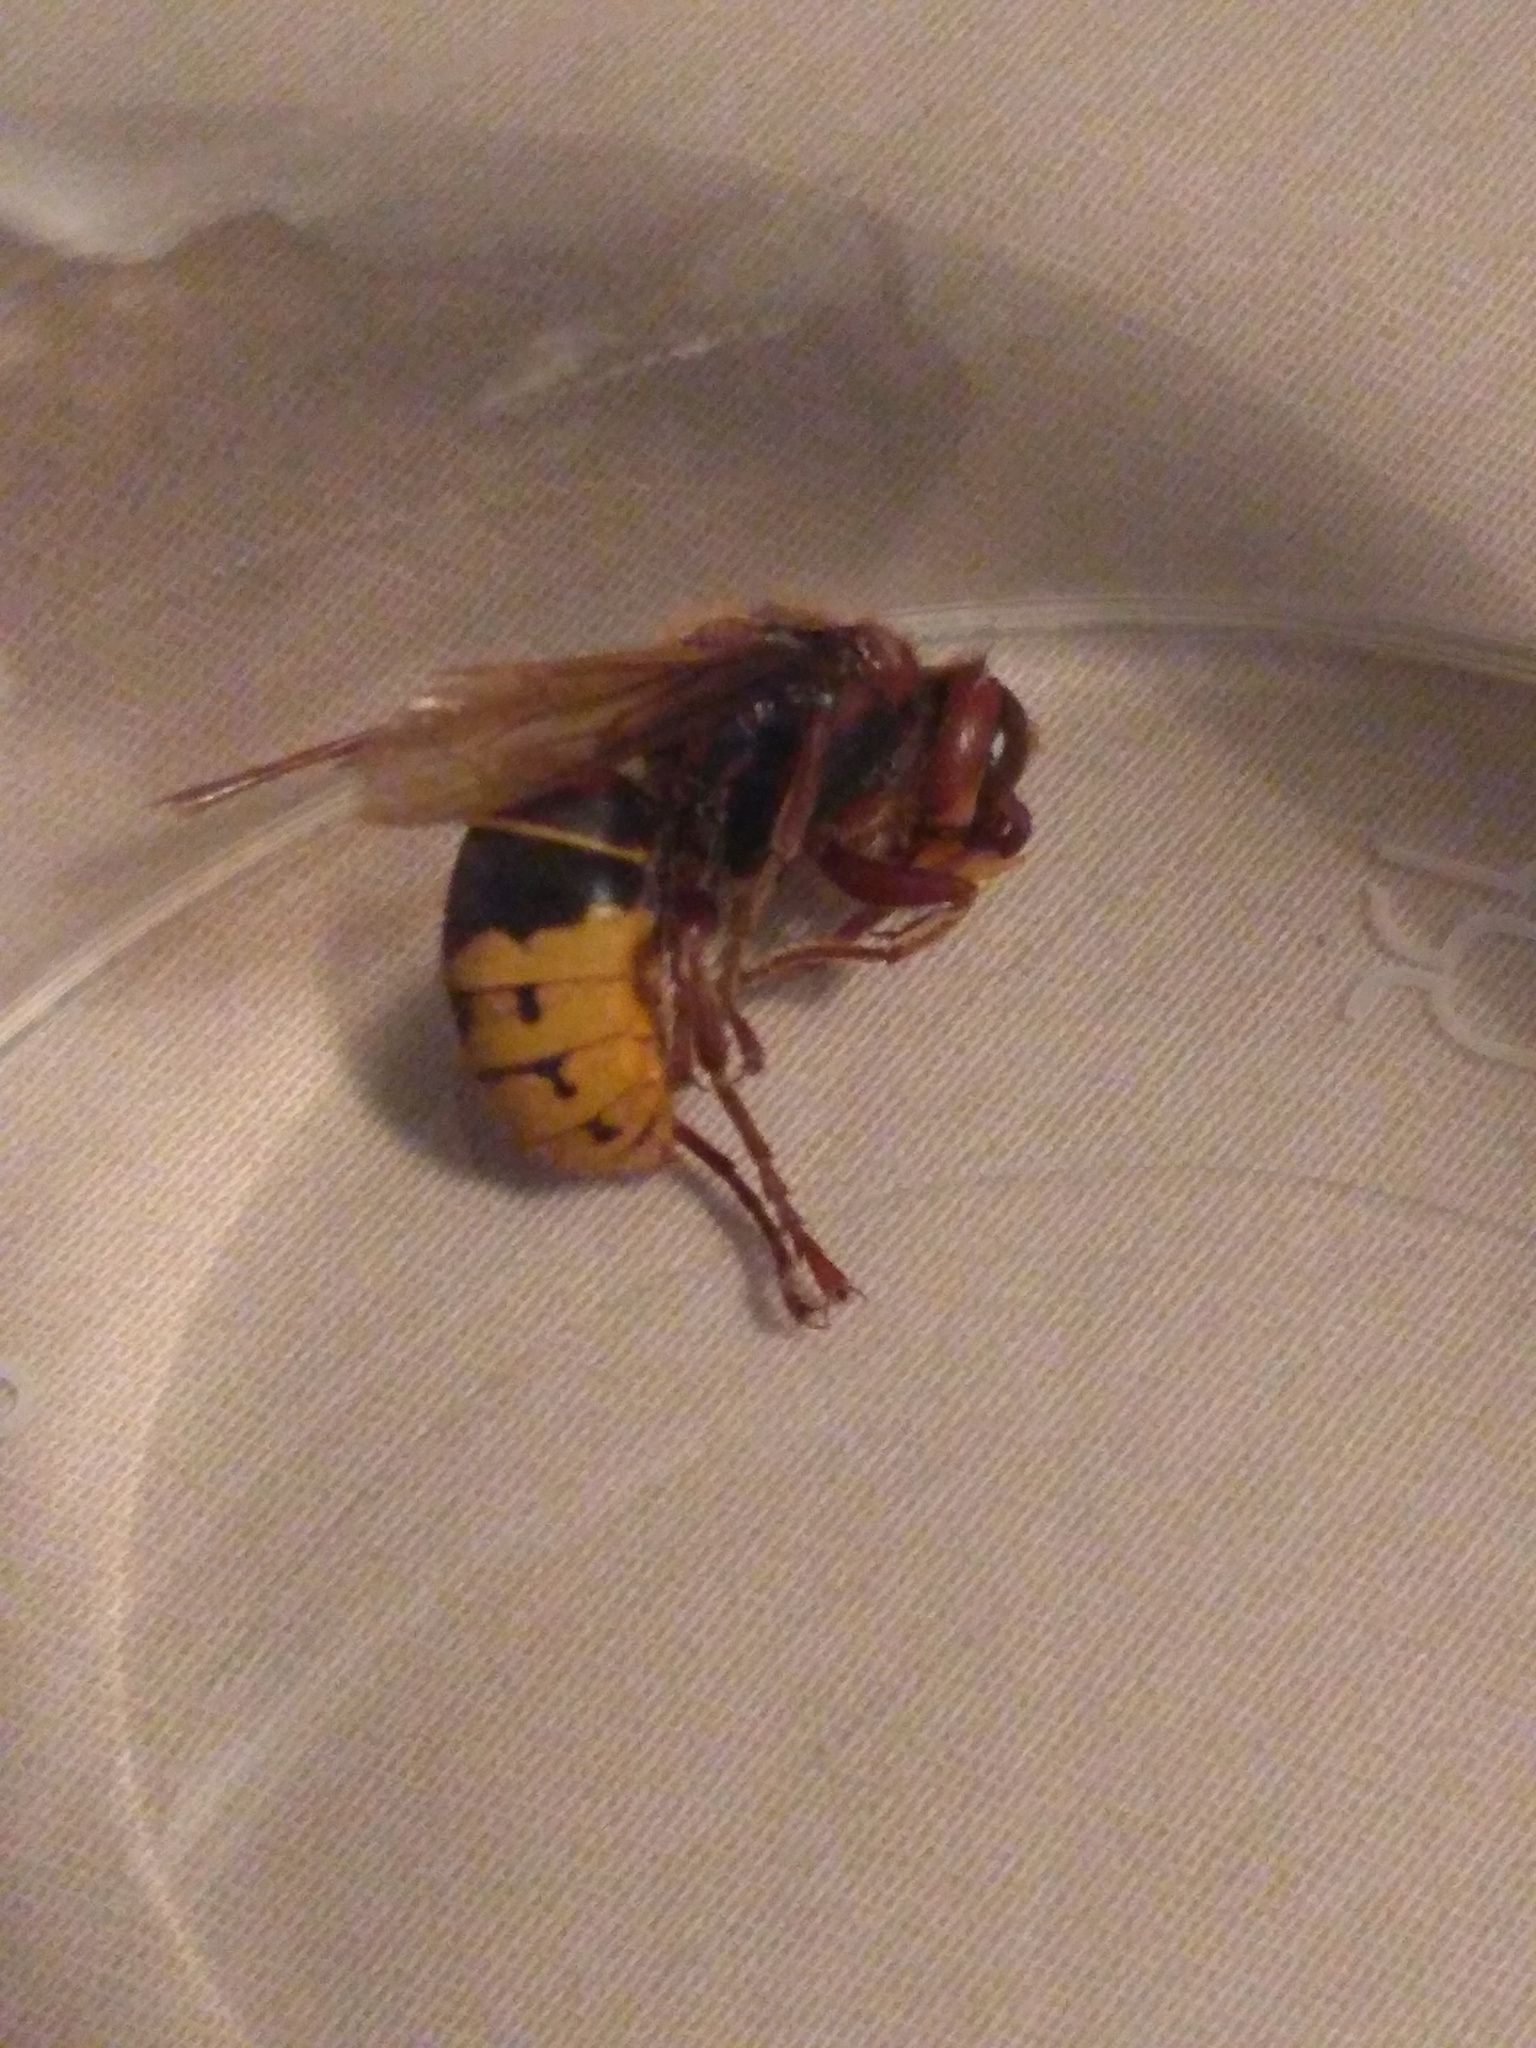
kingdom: Animalia
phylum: Arthropoda
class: Insecta
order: Hymenoptera
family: Vespidae
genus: Vespa
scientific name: Vespa crabro
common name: Hornet
